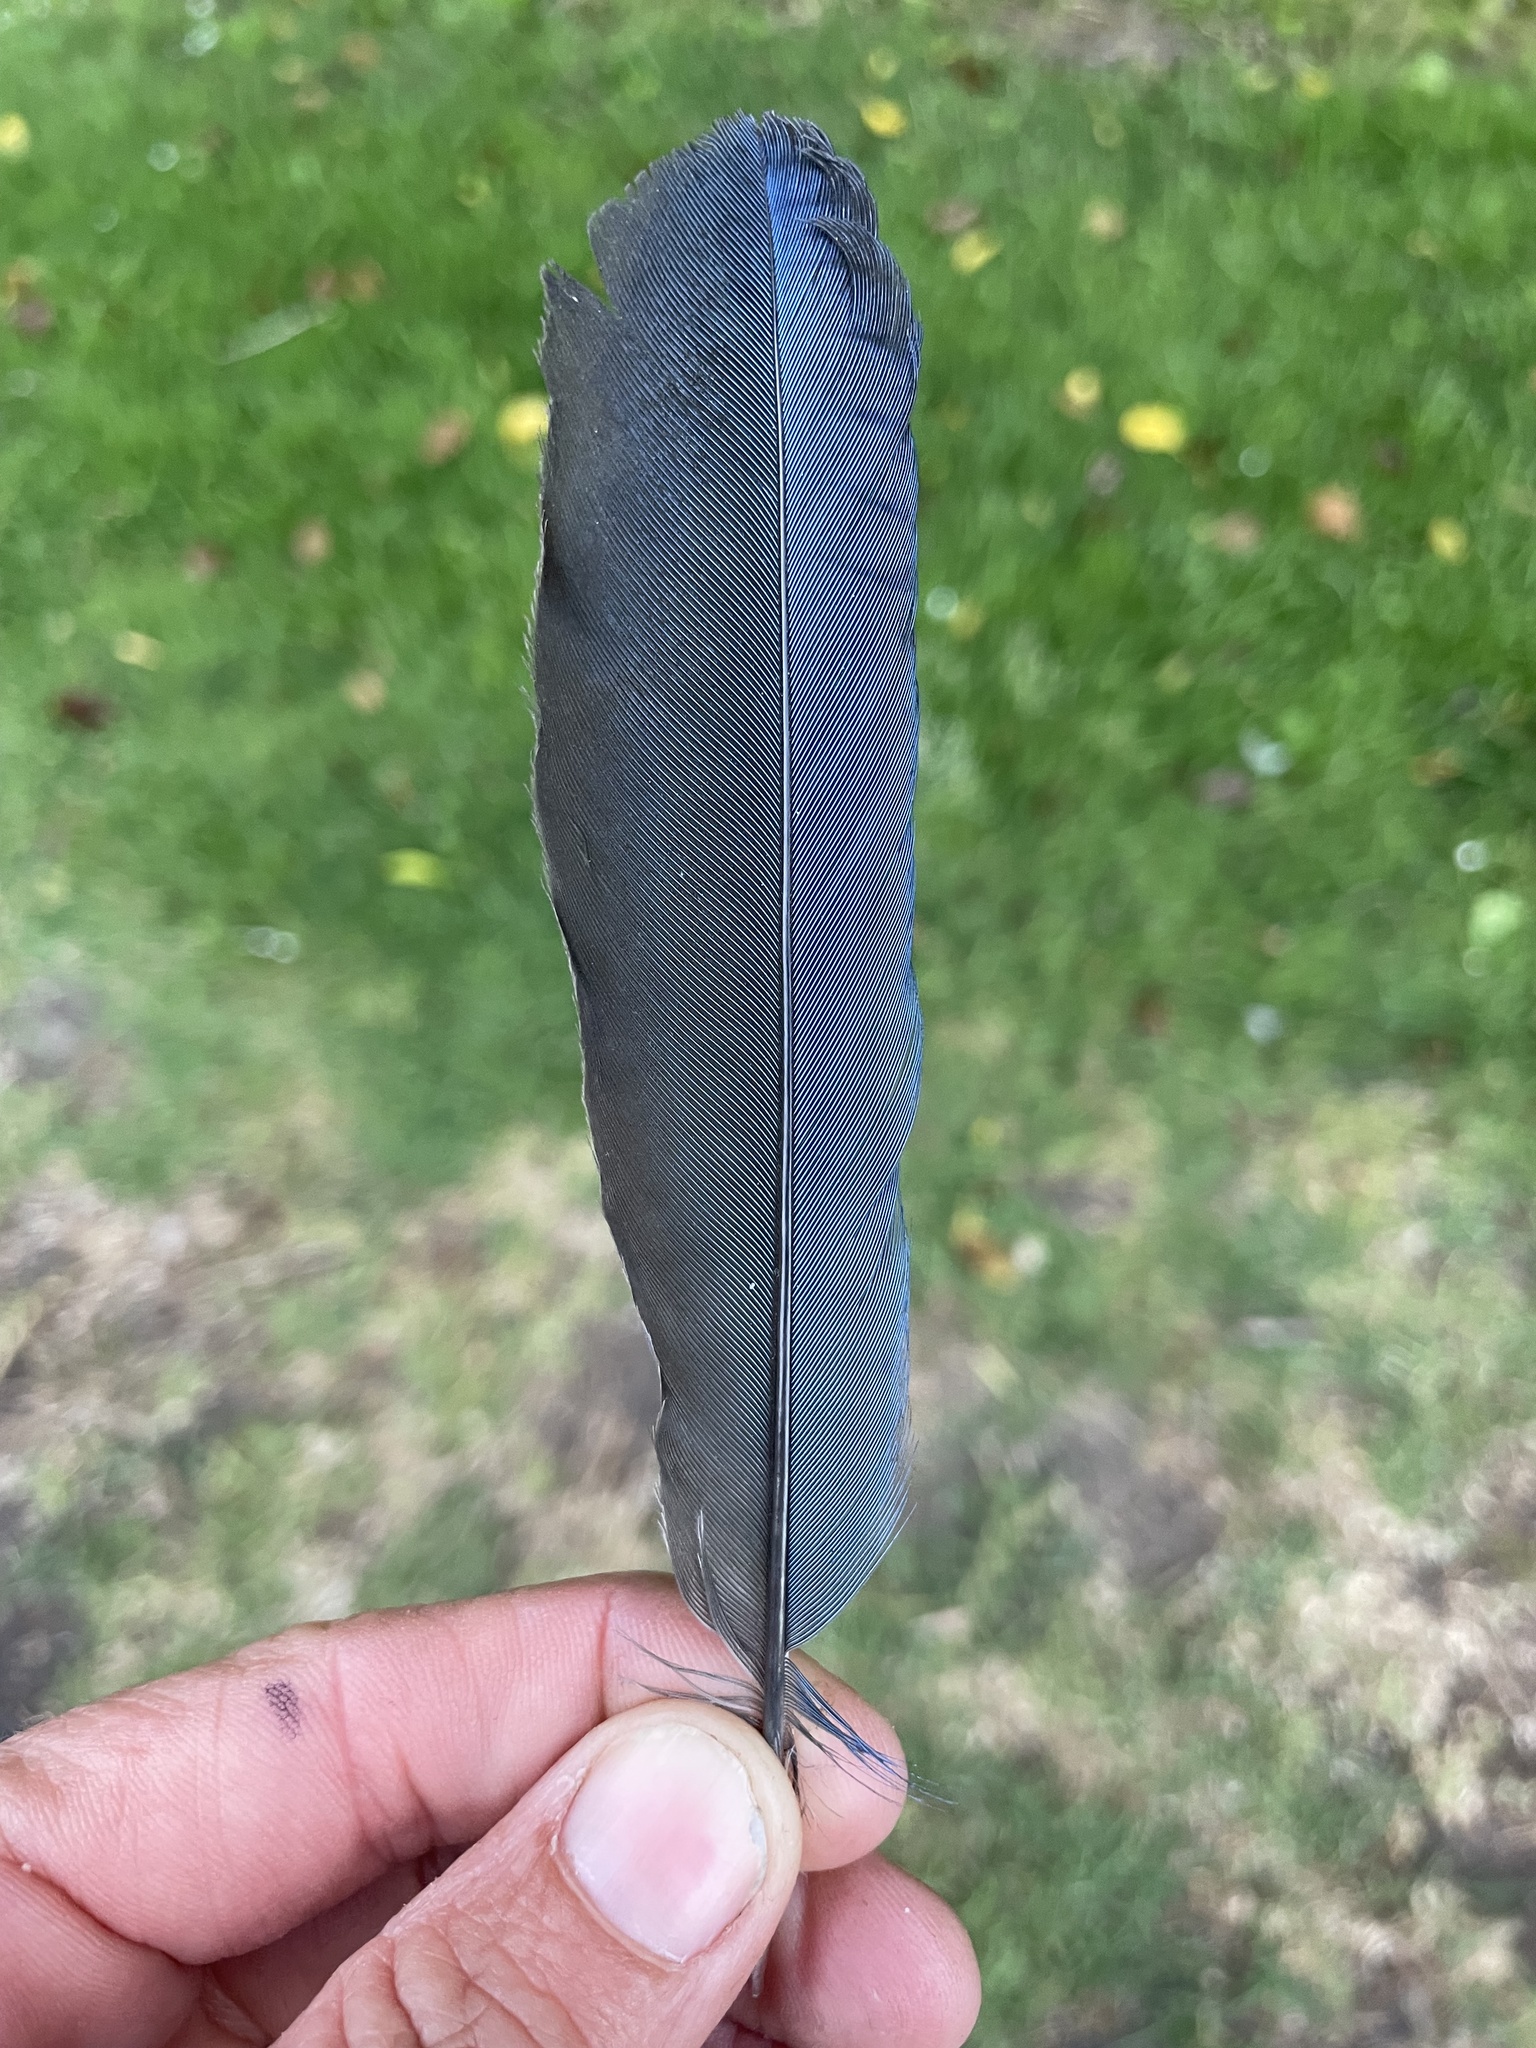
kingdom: Animalia
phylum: Chordata
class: Aves
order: Passeriformes
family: Corvidae
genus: Cyanocitta
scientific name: Cyanocitta stelleri
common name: Steller's jay
